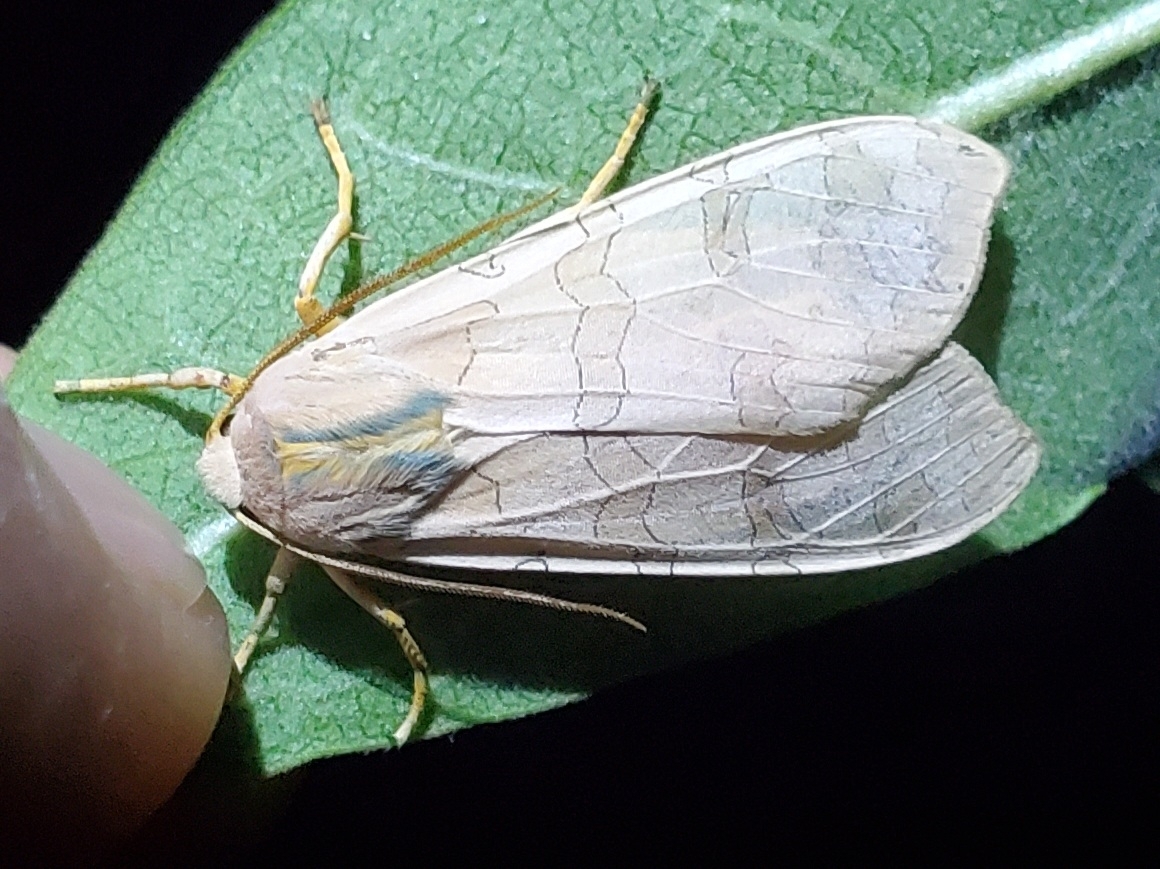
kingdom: Animalia
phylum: Arthropoda
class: Insecta
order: Lepidoptera
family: Erebidae
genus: Halysidota
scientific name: Halysidota
